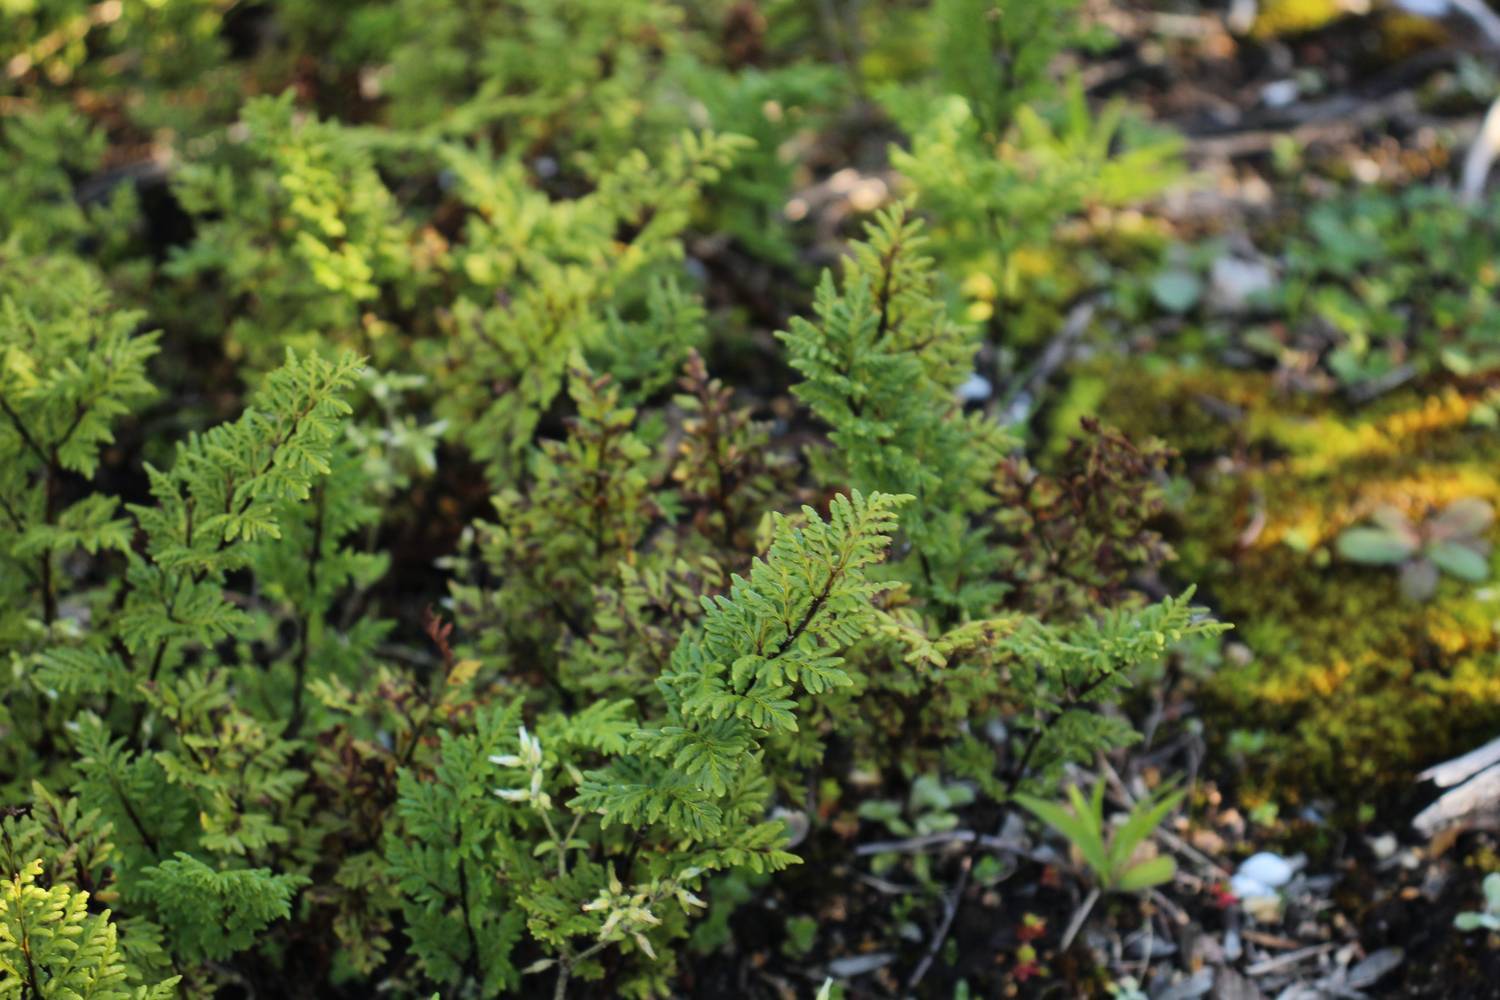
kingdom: Plantae
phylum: Tracheophyta
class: Polypodiopsida
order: Polypodiales
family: Pteridaceae
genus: Cheilanthes
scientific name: Cheilanthes austrotenuifolia
